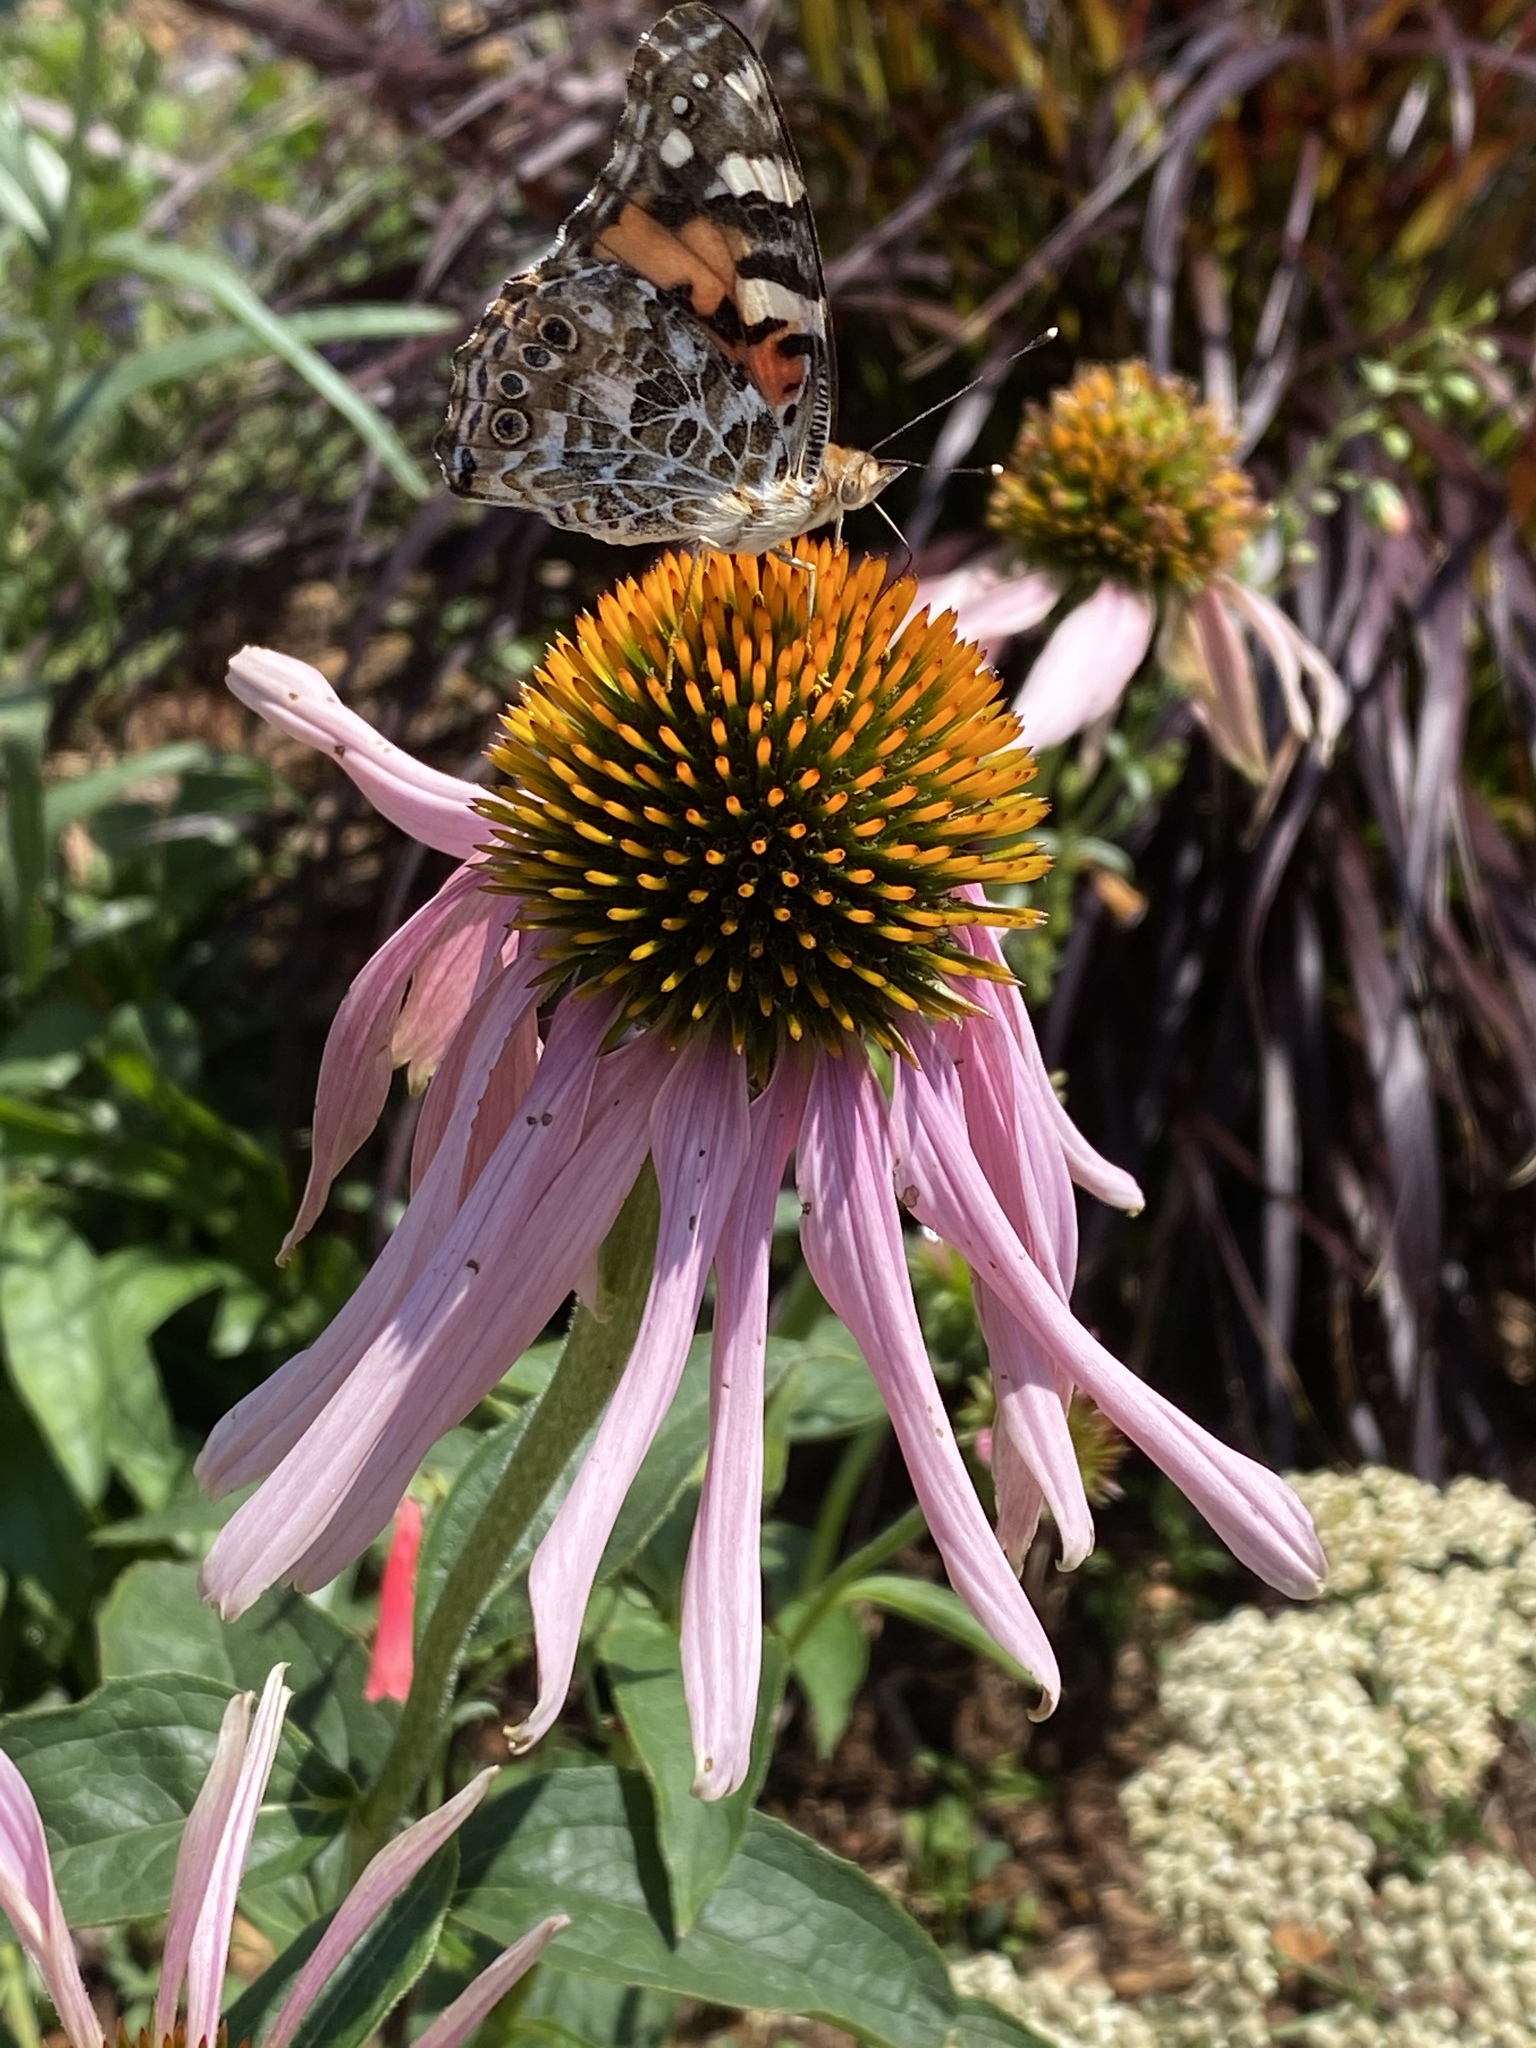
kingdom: Animalia
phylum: Arthropoda
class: Insecta
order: Lepidoptera
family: Nymphalidae
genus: Vanessa
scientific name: Vanessa cardui
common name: Painted lady
